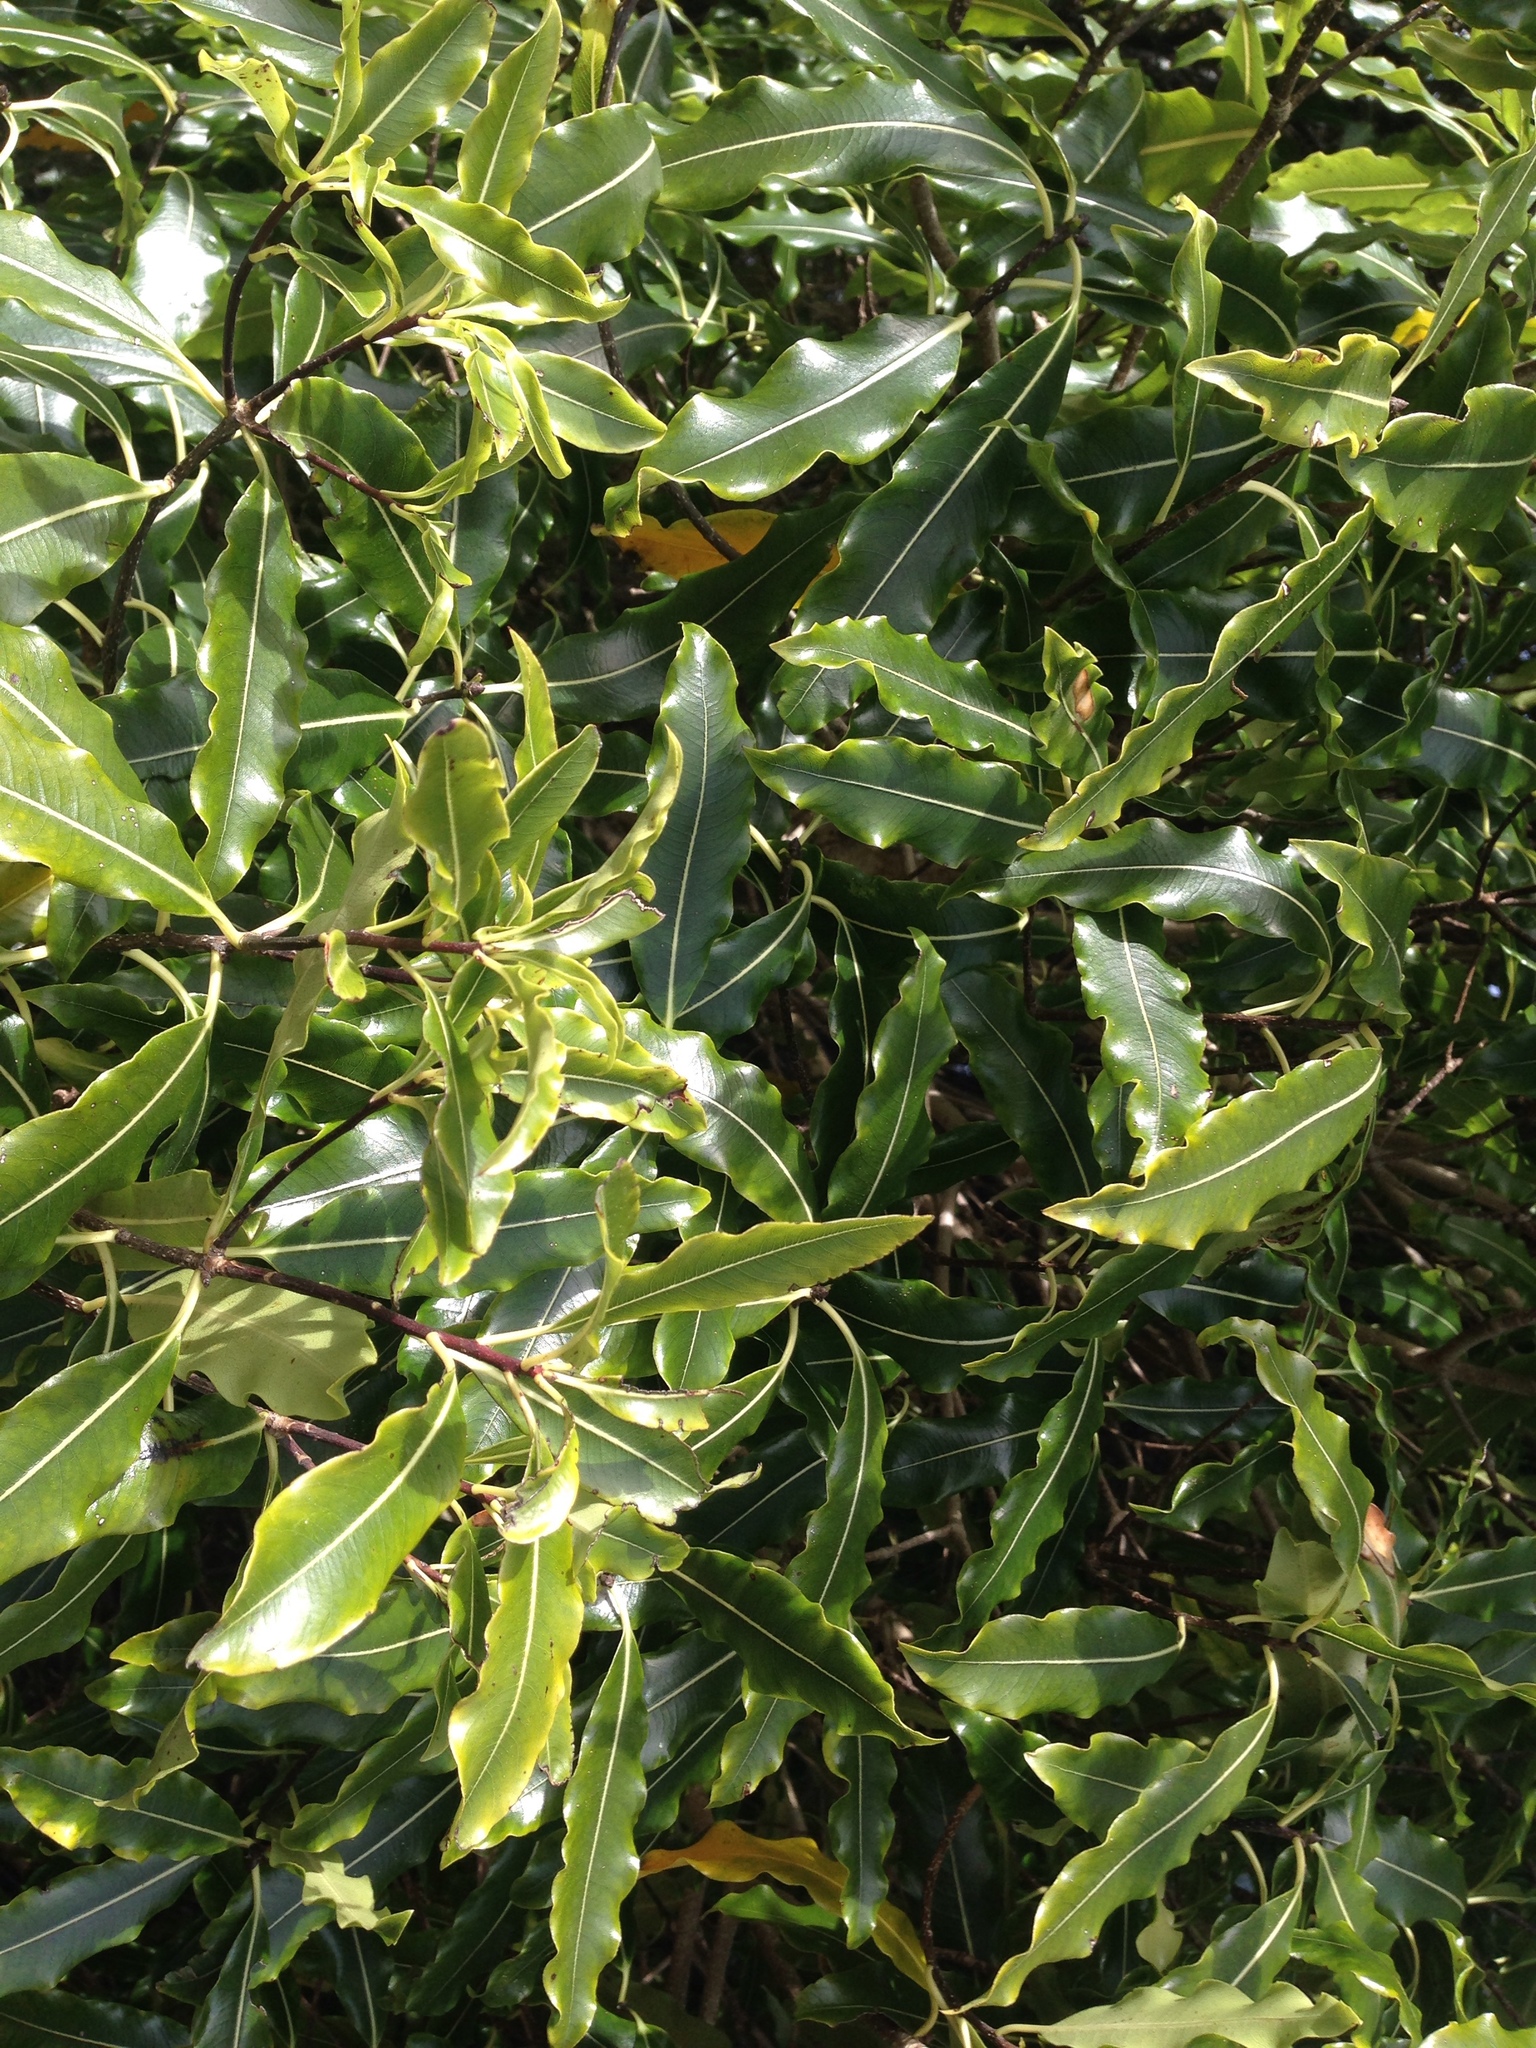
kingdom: Plantae
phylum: Tracheophyta
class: Magnoliopsida
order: Apiales
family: Pittosporaceae
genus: Pittosporum
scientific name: Pittosporum eugenioides
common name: Lemonwood
